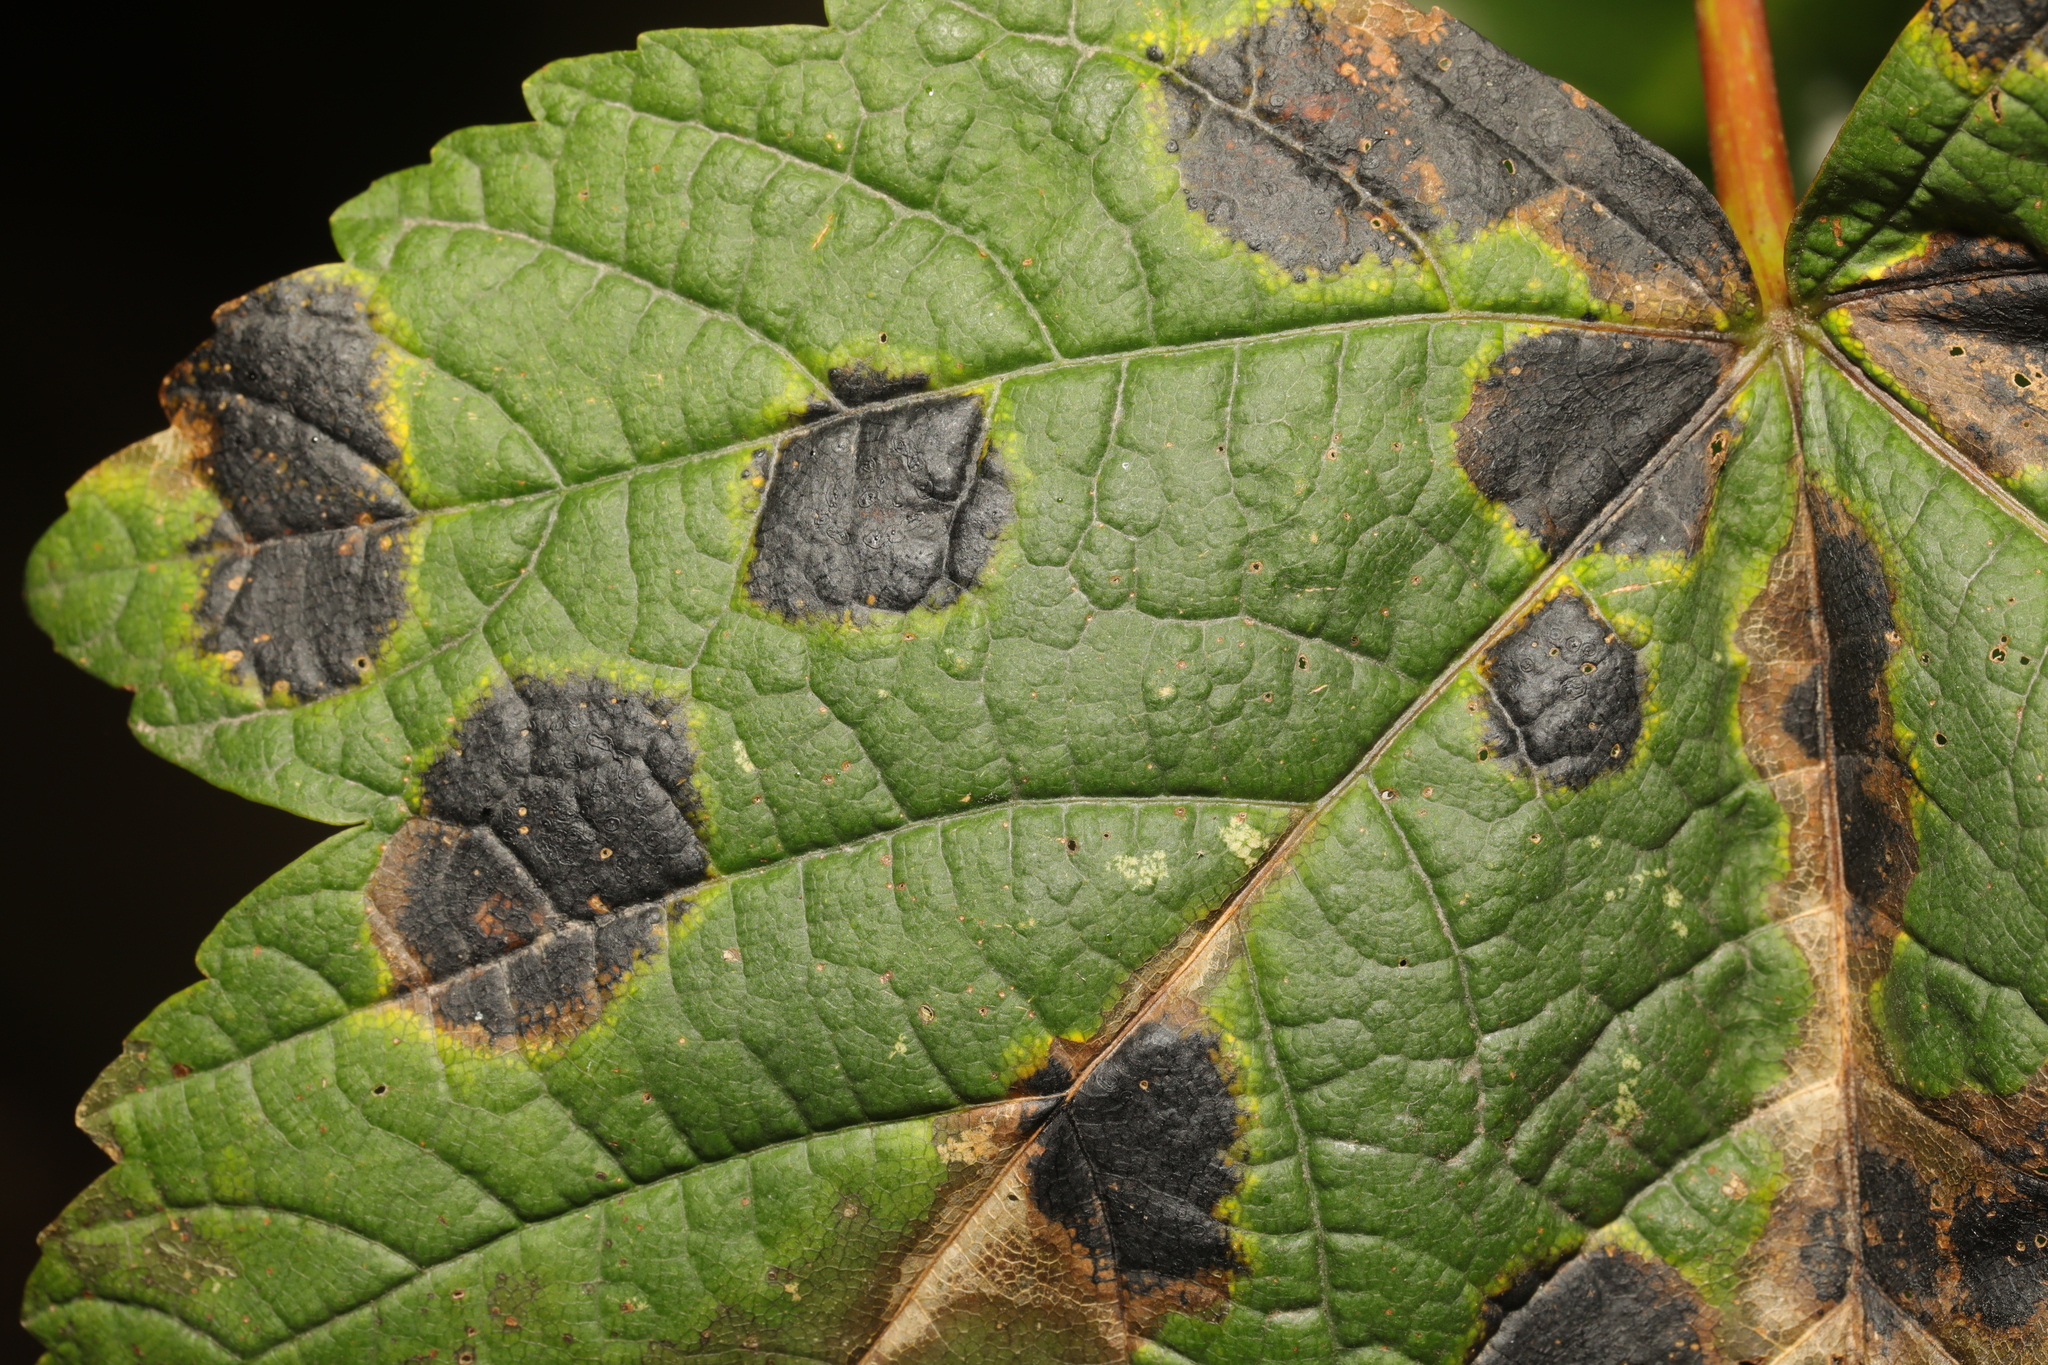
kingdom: Fungi
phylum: Ascomycota
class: Leotiomycetes
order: Rhytismatales
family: Rhytismataceae
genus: Rhytisma
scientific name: Rhytisma acerinum
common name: European tar spot
